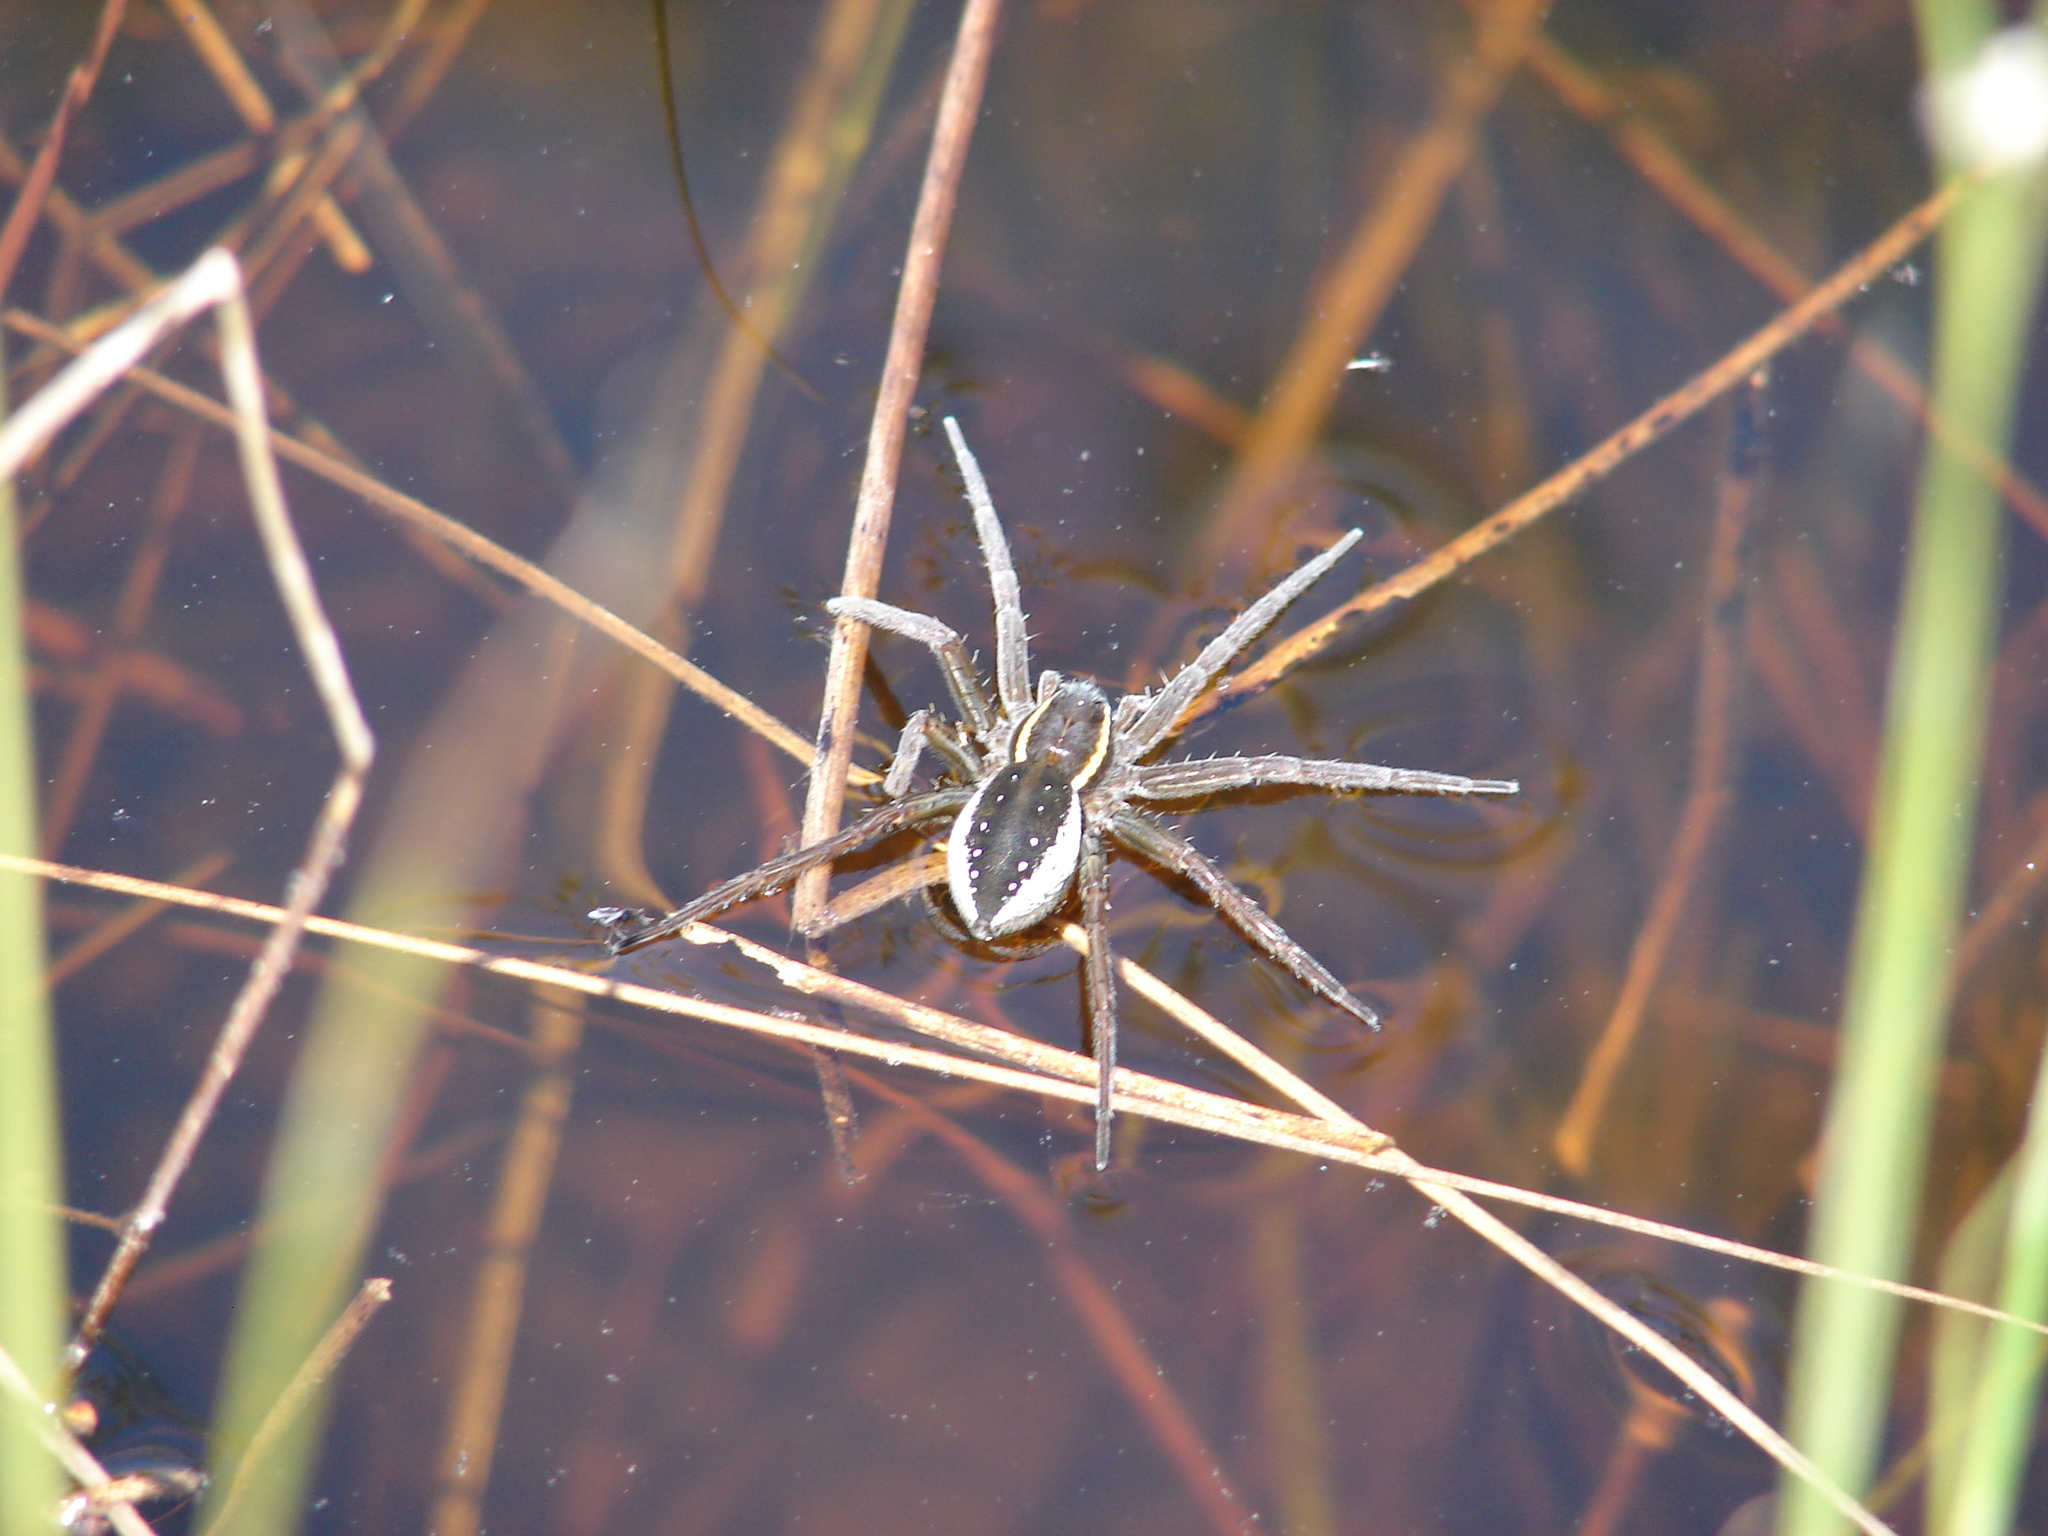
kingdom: Animalia
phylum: Arthropoda
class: Arachnida
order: Araneae
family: Pisauridae
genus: Dolomedes
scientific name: Dolomedes triton
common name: Six-spotted fishing spider
